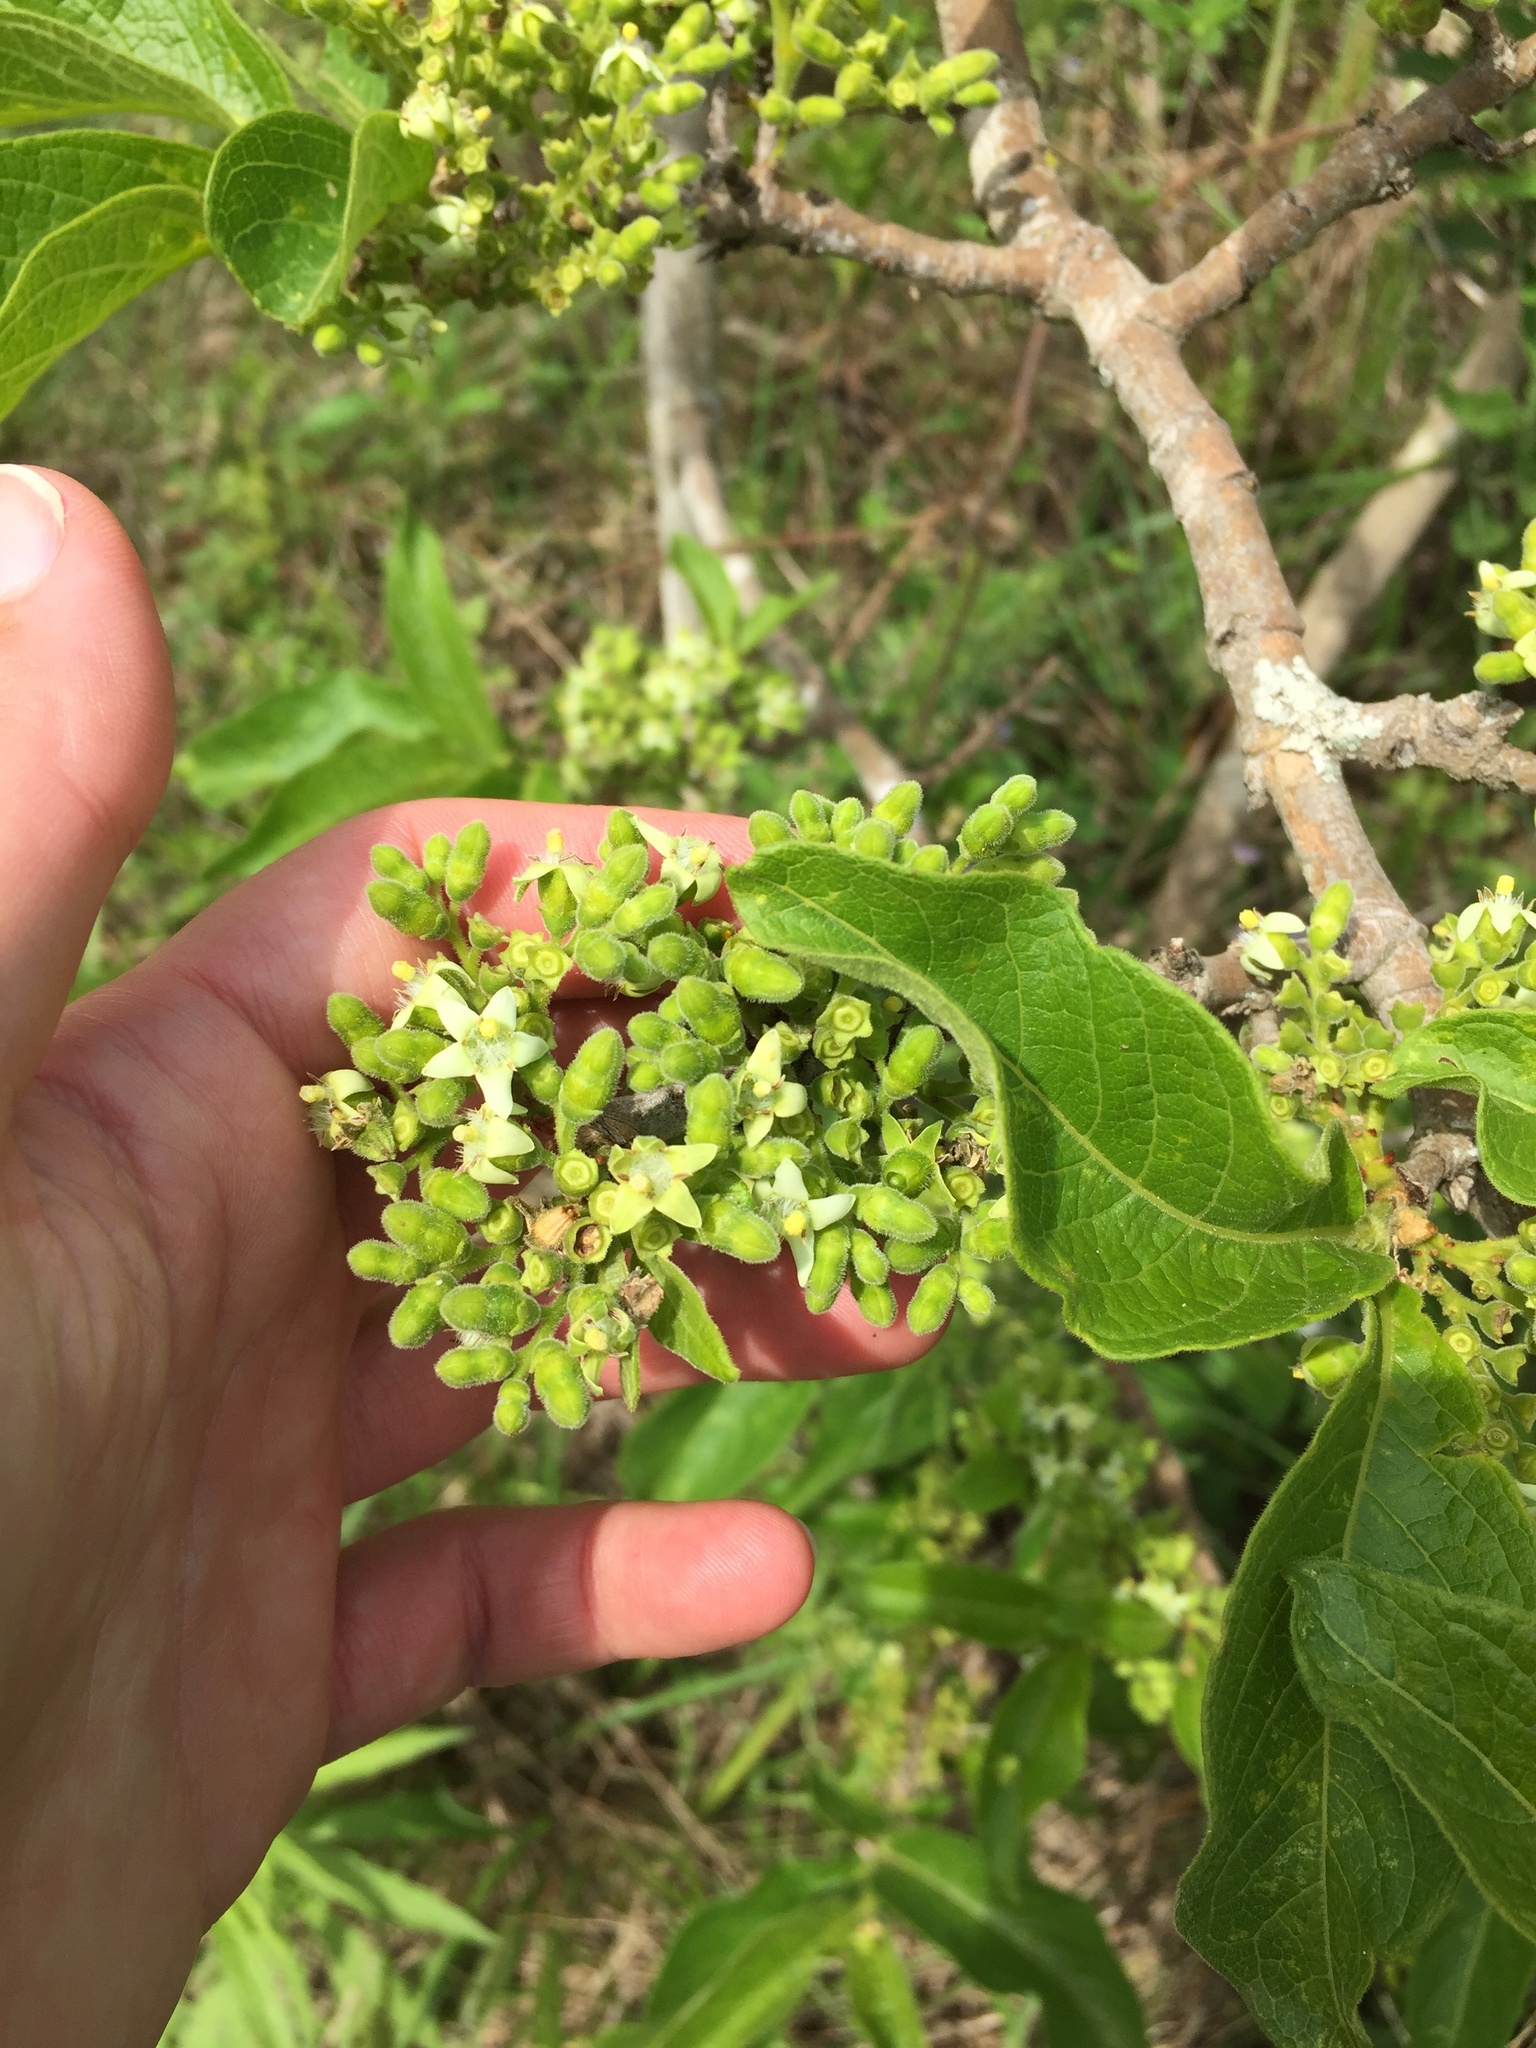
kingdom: Plantae
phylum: Tracheophyta
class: Magnoliopsida
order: Gentianales
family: Rubiaceae
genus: Vangueria
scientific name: Vangueria infausta
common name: Medlar
